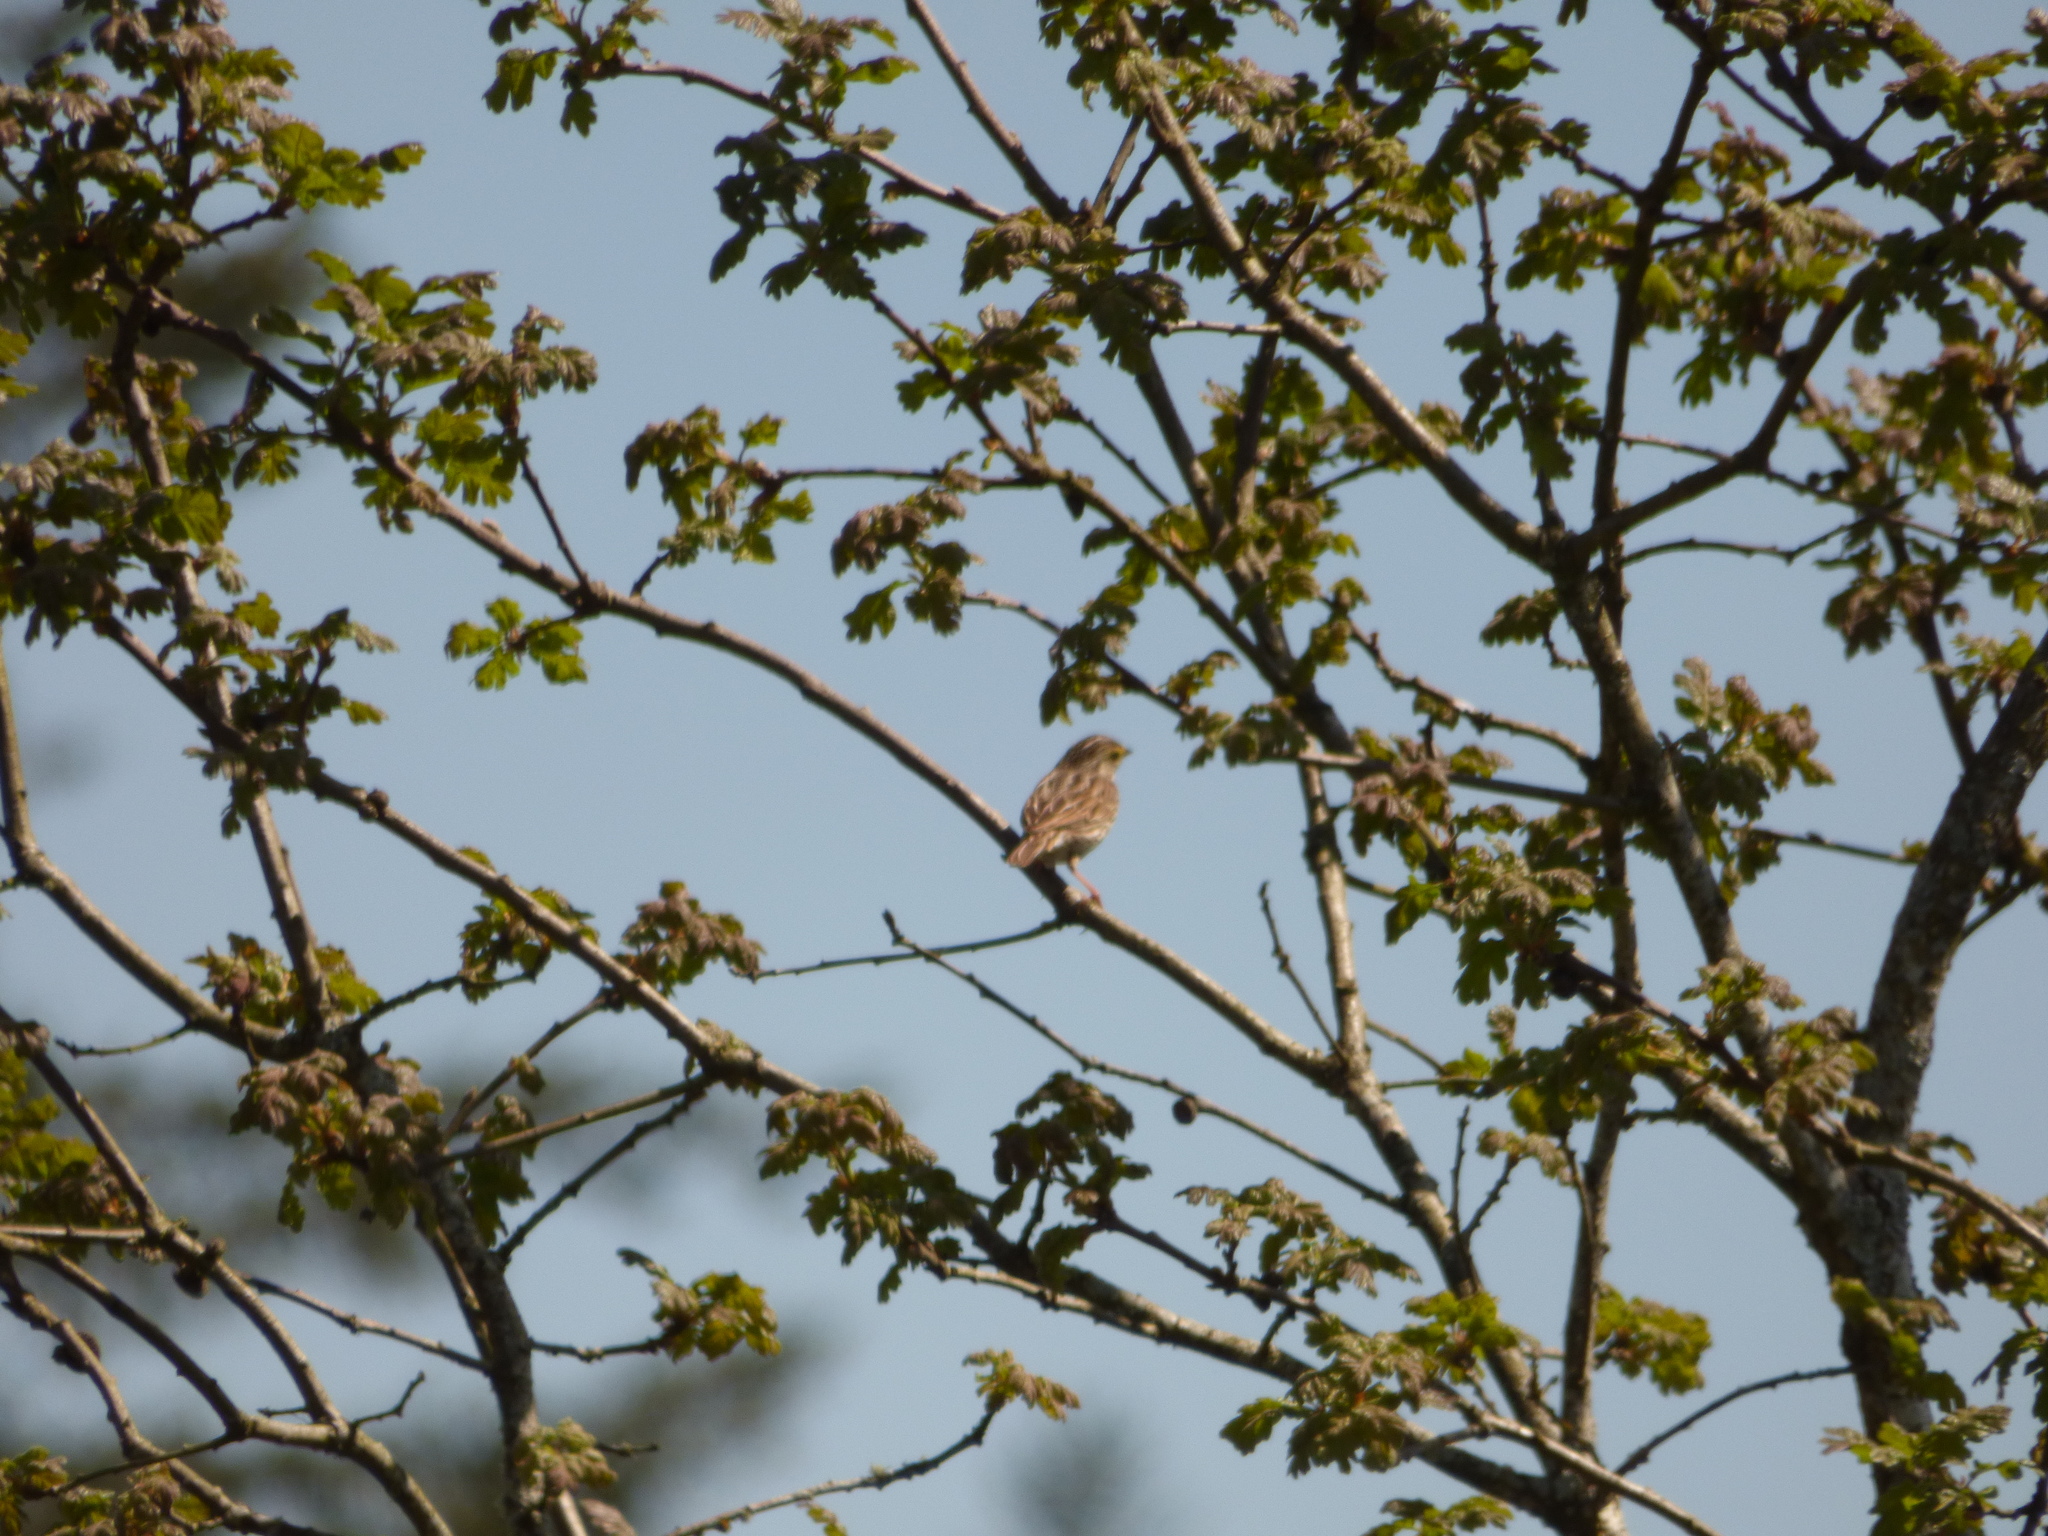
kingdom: Animalia
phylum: Chordata
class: Aves
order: Passeriformes
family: Passerellidae
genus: Passerculus
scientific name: Passerculus sandwichensis
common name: Savannah sparrow
